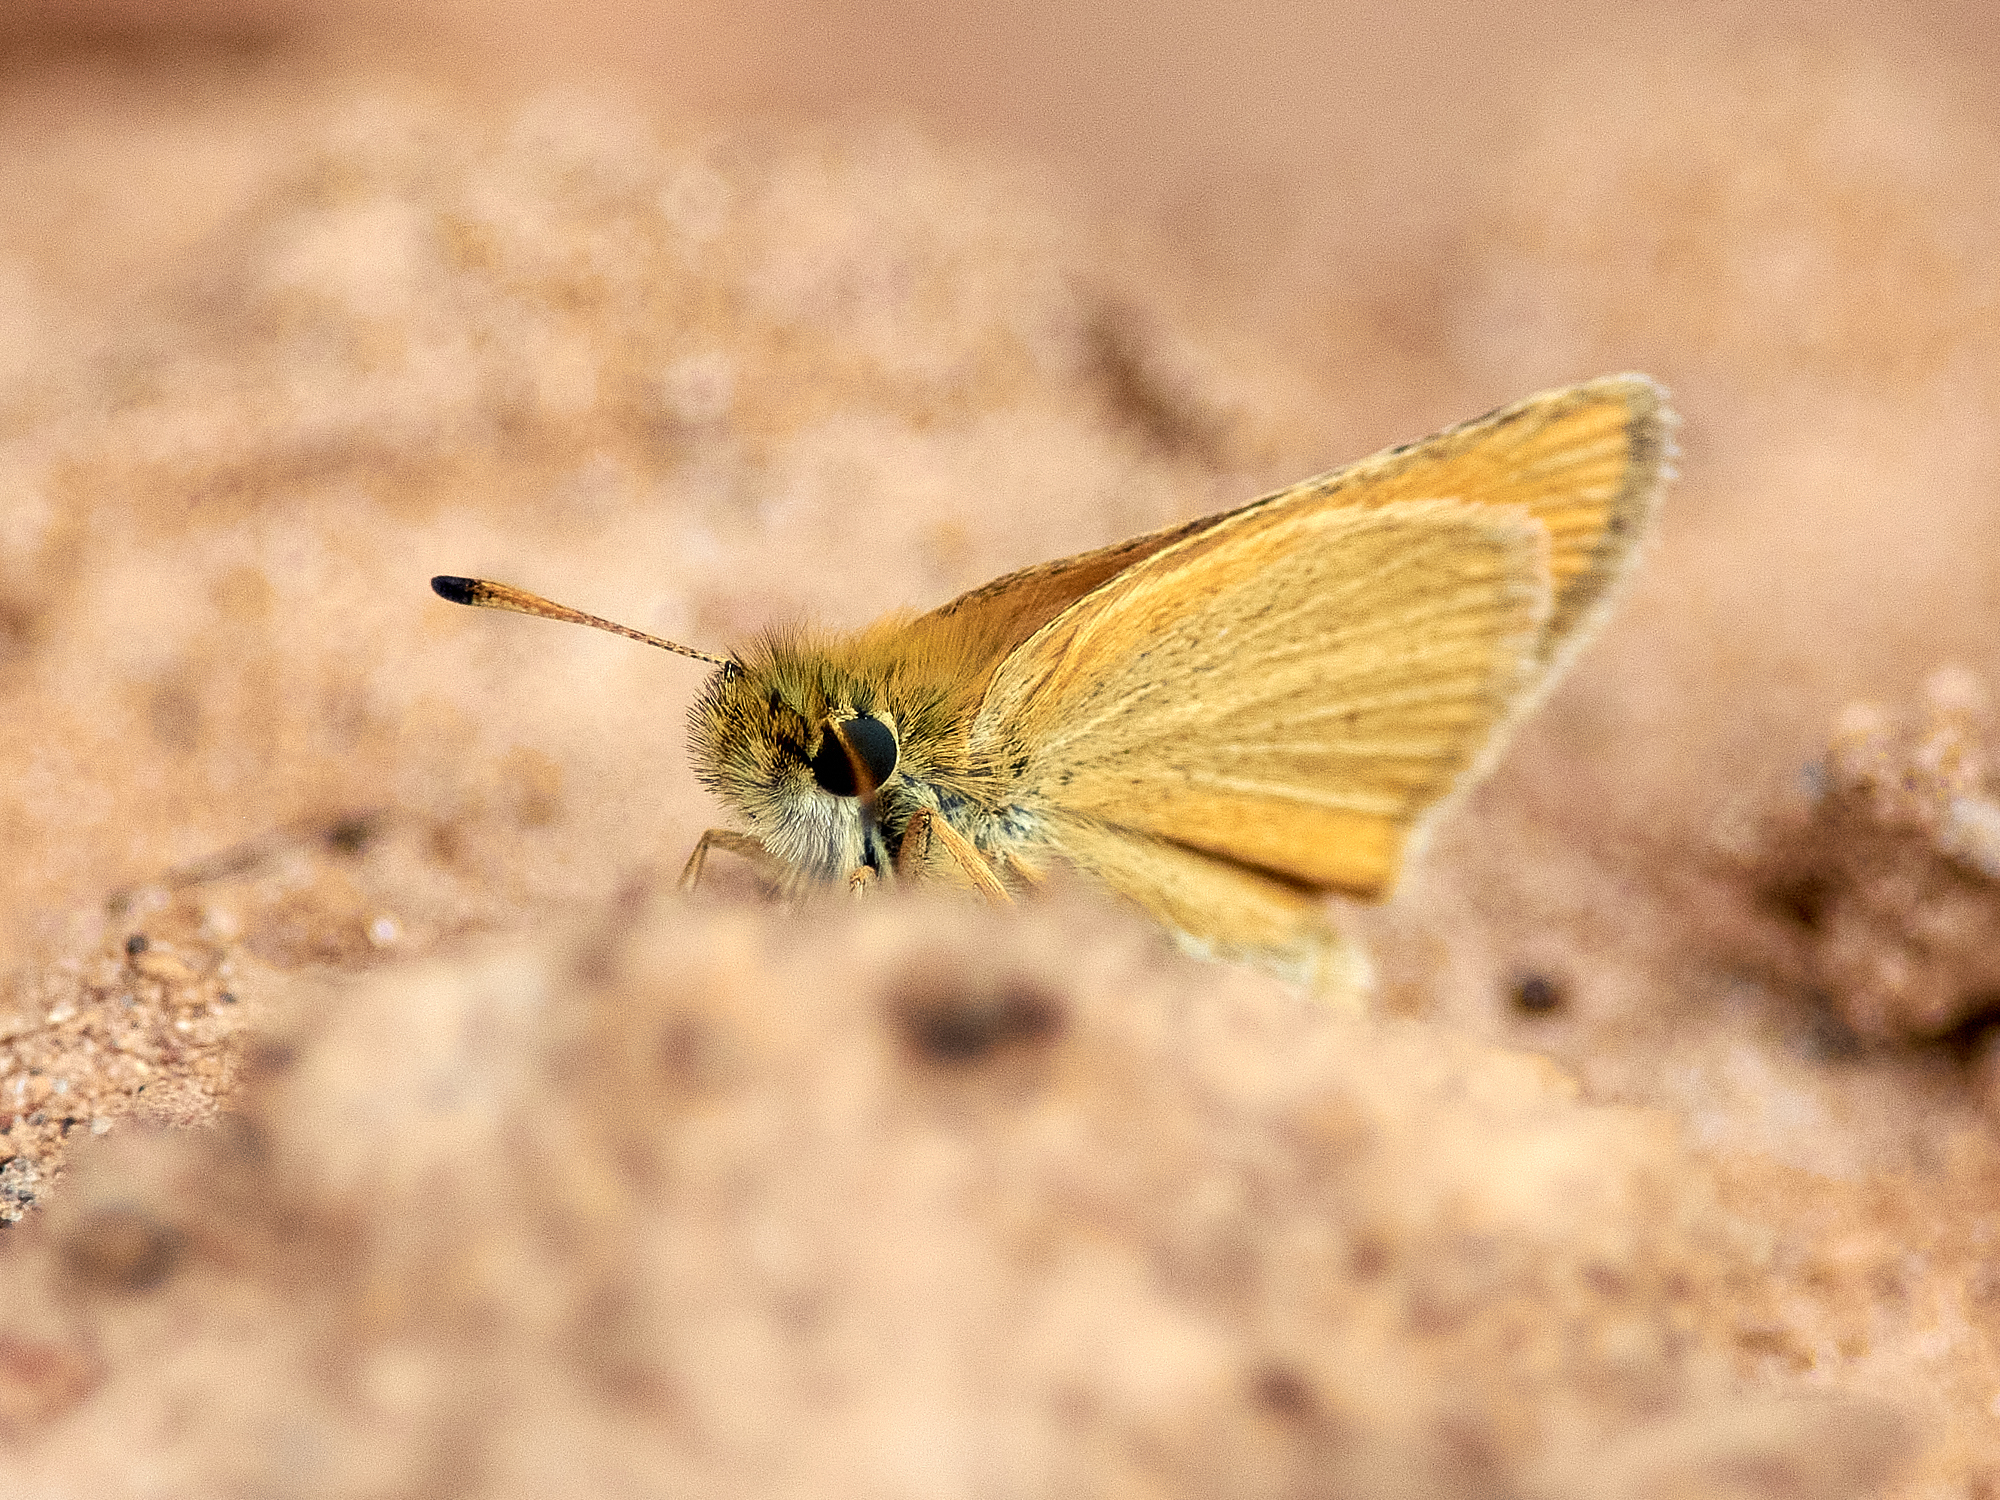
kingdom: Animalia
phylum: Arthropoda
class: Insecta
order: Lepidoptera
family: Hesperiidae
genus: Thymelicus
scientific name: Thymelicus lineola
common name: Essex skipper
